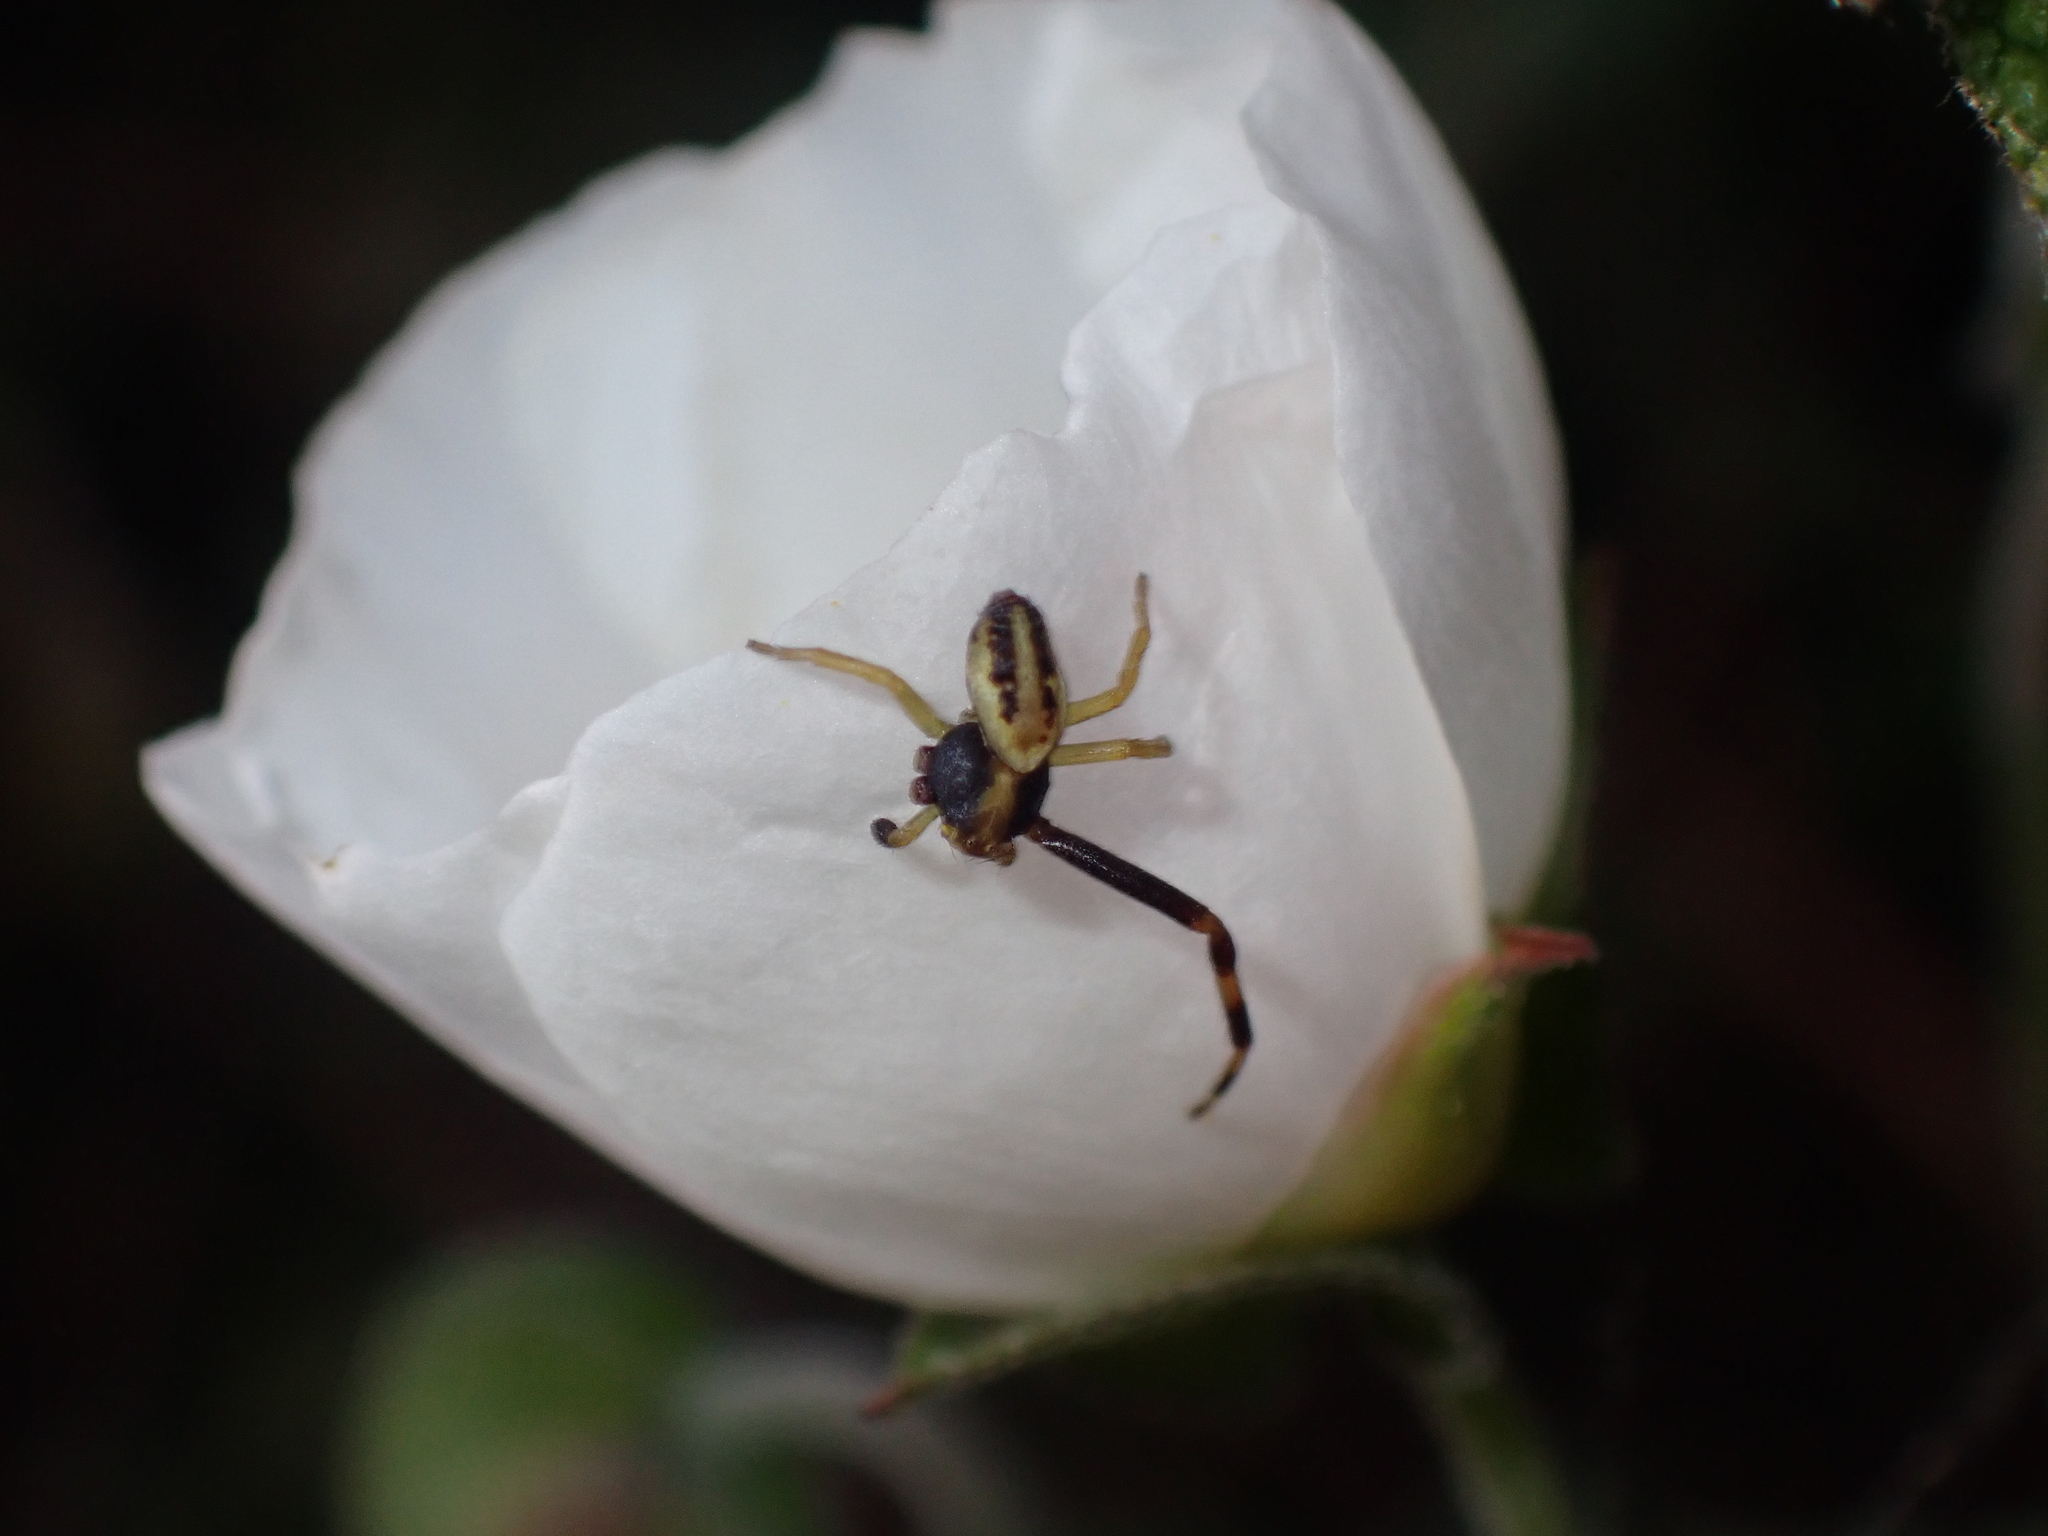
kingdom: Animalia
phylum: Arthropoda
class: Arachnida
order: Araneae
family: Thomisidae
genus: Misumena
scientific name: Misumena vatia
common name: Goldenrod crab spider
